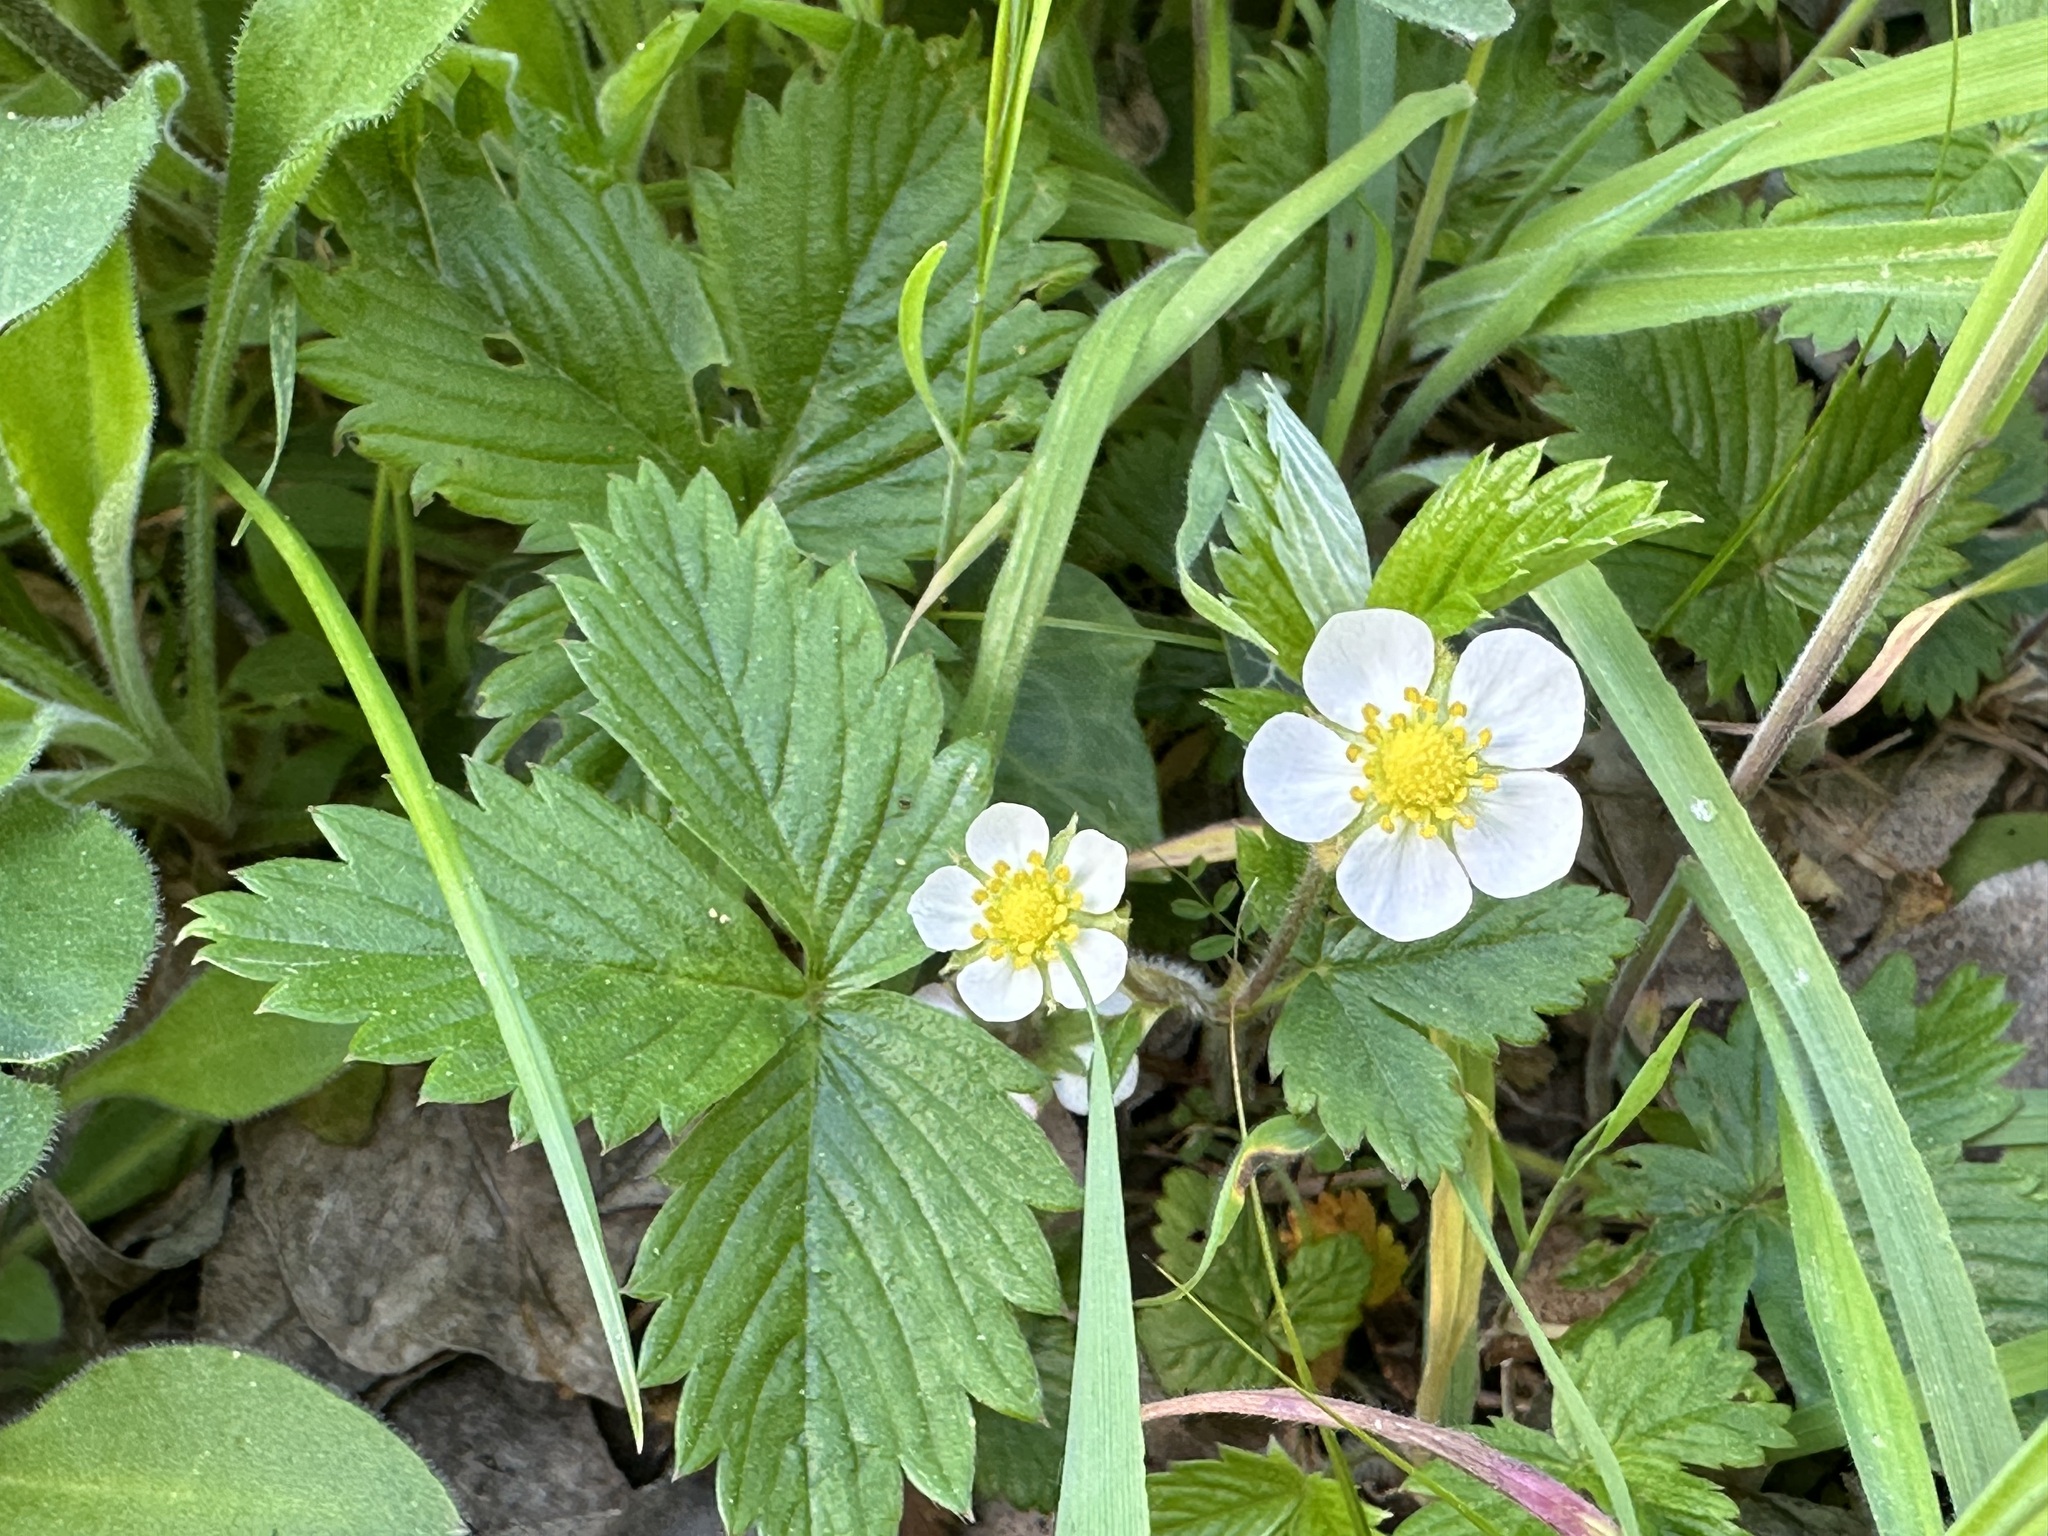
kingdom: Plantae
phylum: Tracheophyta
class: Magnoliopsida
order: Rosales
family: Rosaceae
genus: Fragaria
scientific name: Fragaria vesca
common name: Wild strawberry
